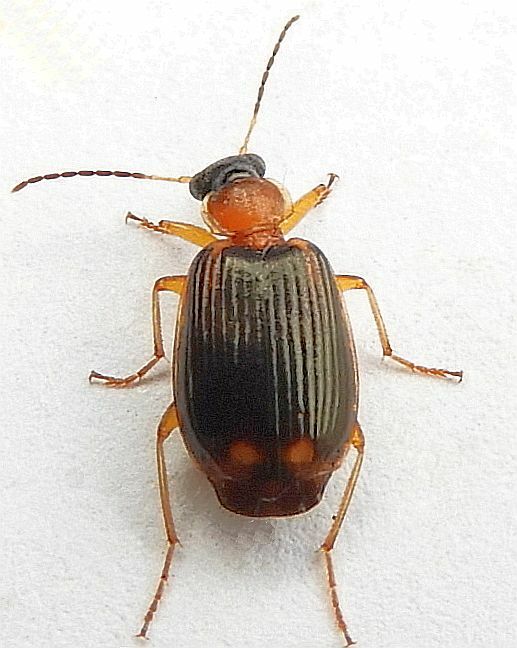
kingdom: Animalia
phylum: Arthropoda
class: Insecta
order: Coleoptera
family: Carabidae
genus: Lebia
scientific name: Lebia analis
